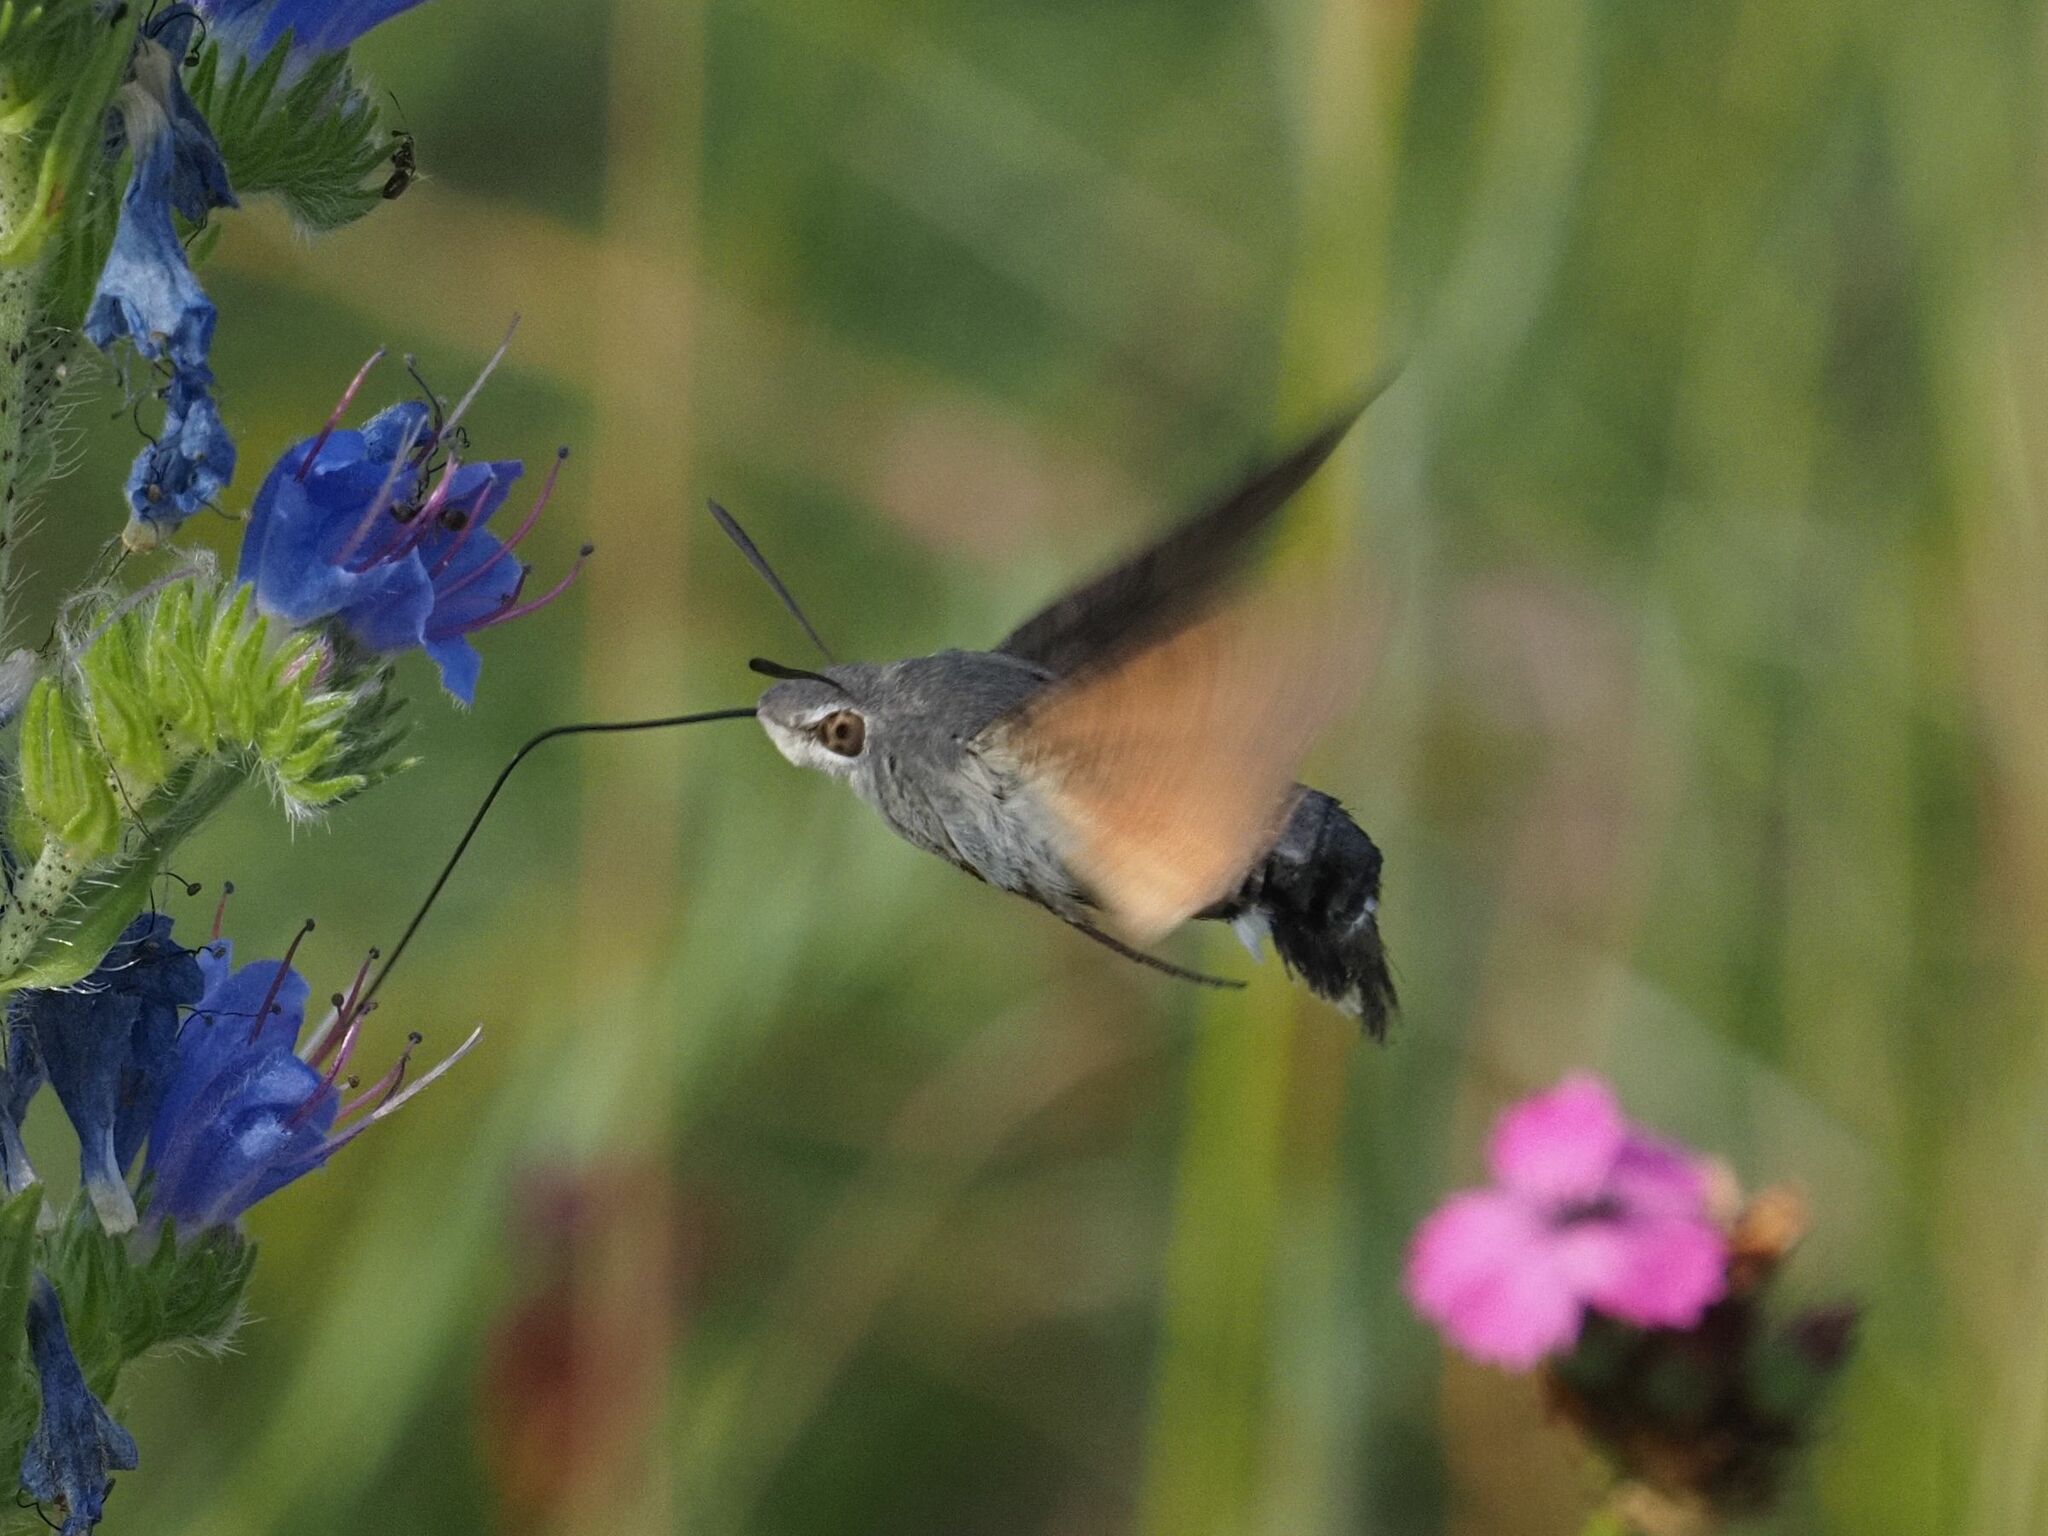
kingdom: Animalia
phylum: Arthropoda
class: Insecta
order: Lepidoptera
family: Sphingidae
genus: Macroglossum
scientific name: Macroglossum stellatarum
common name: Humming-bird hawk-moth
